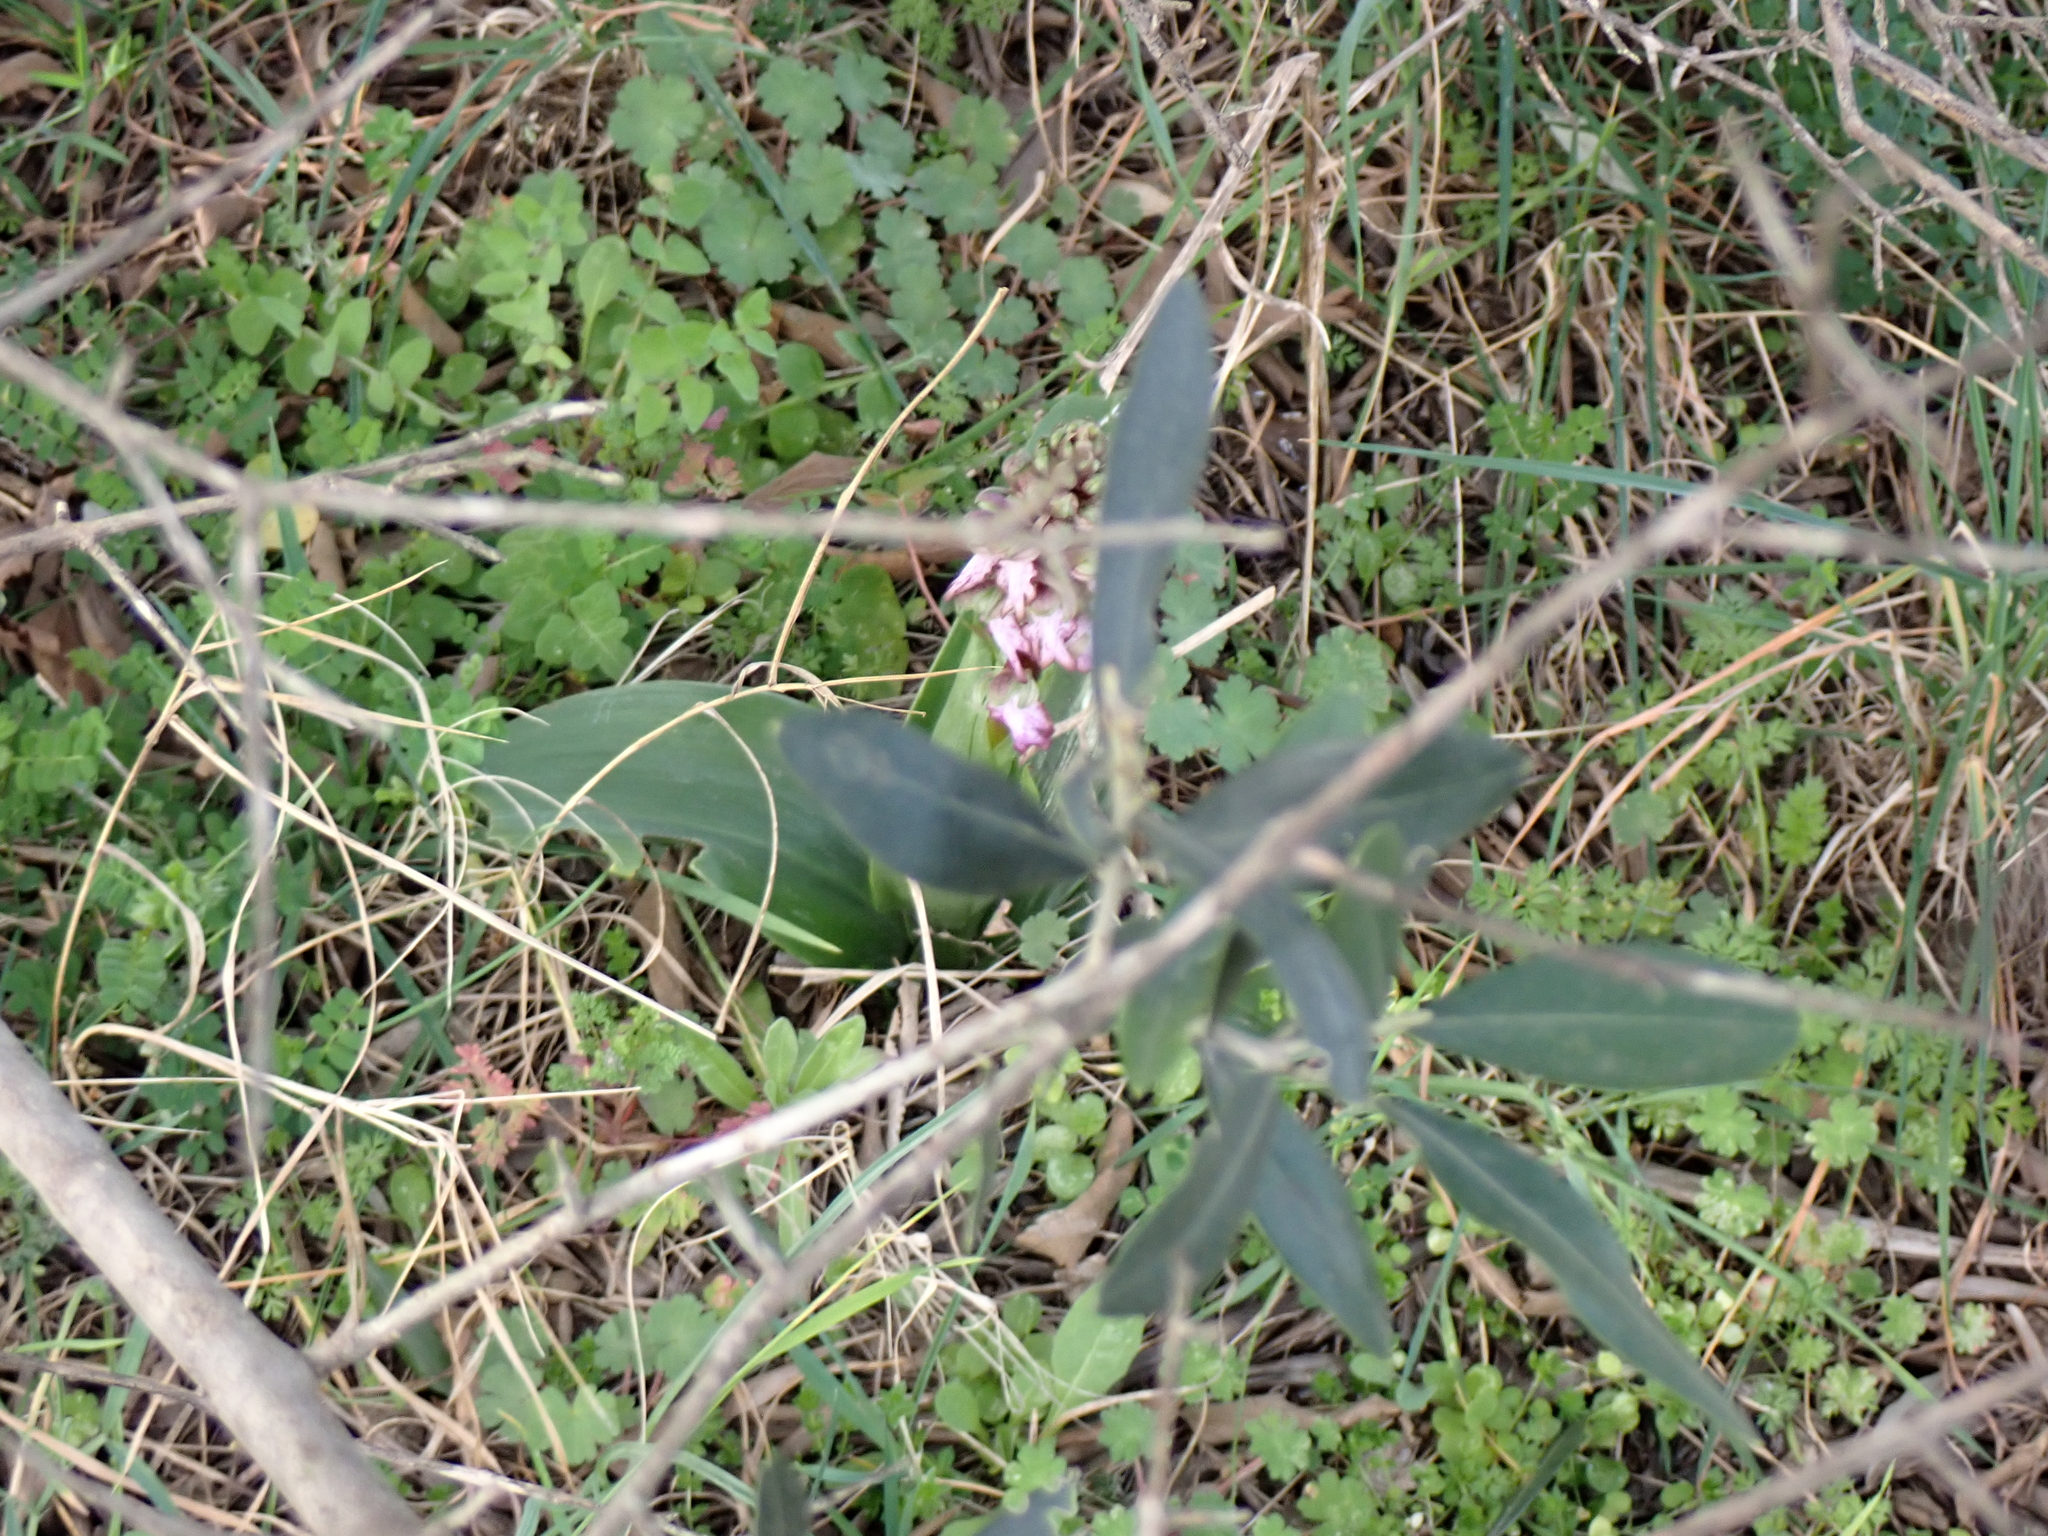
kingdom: Plantae
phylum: Tracheophyta
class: Liliopsida
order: Asparagales
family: Orchidaceae
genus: Himantoglossum
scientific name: Himantoglossum robertianum
